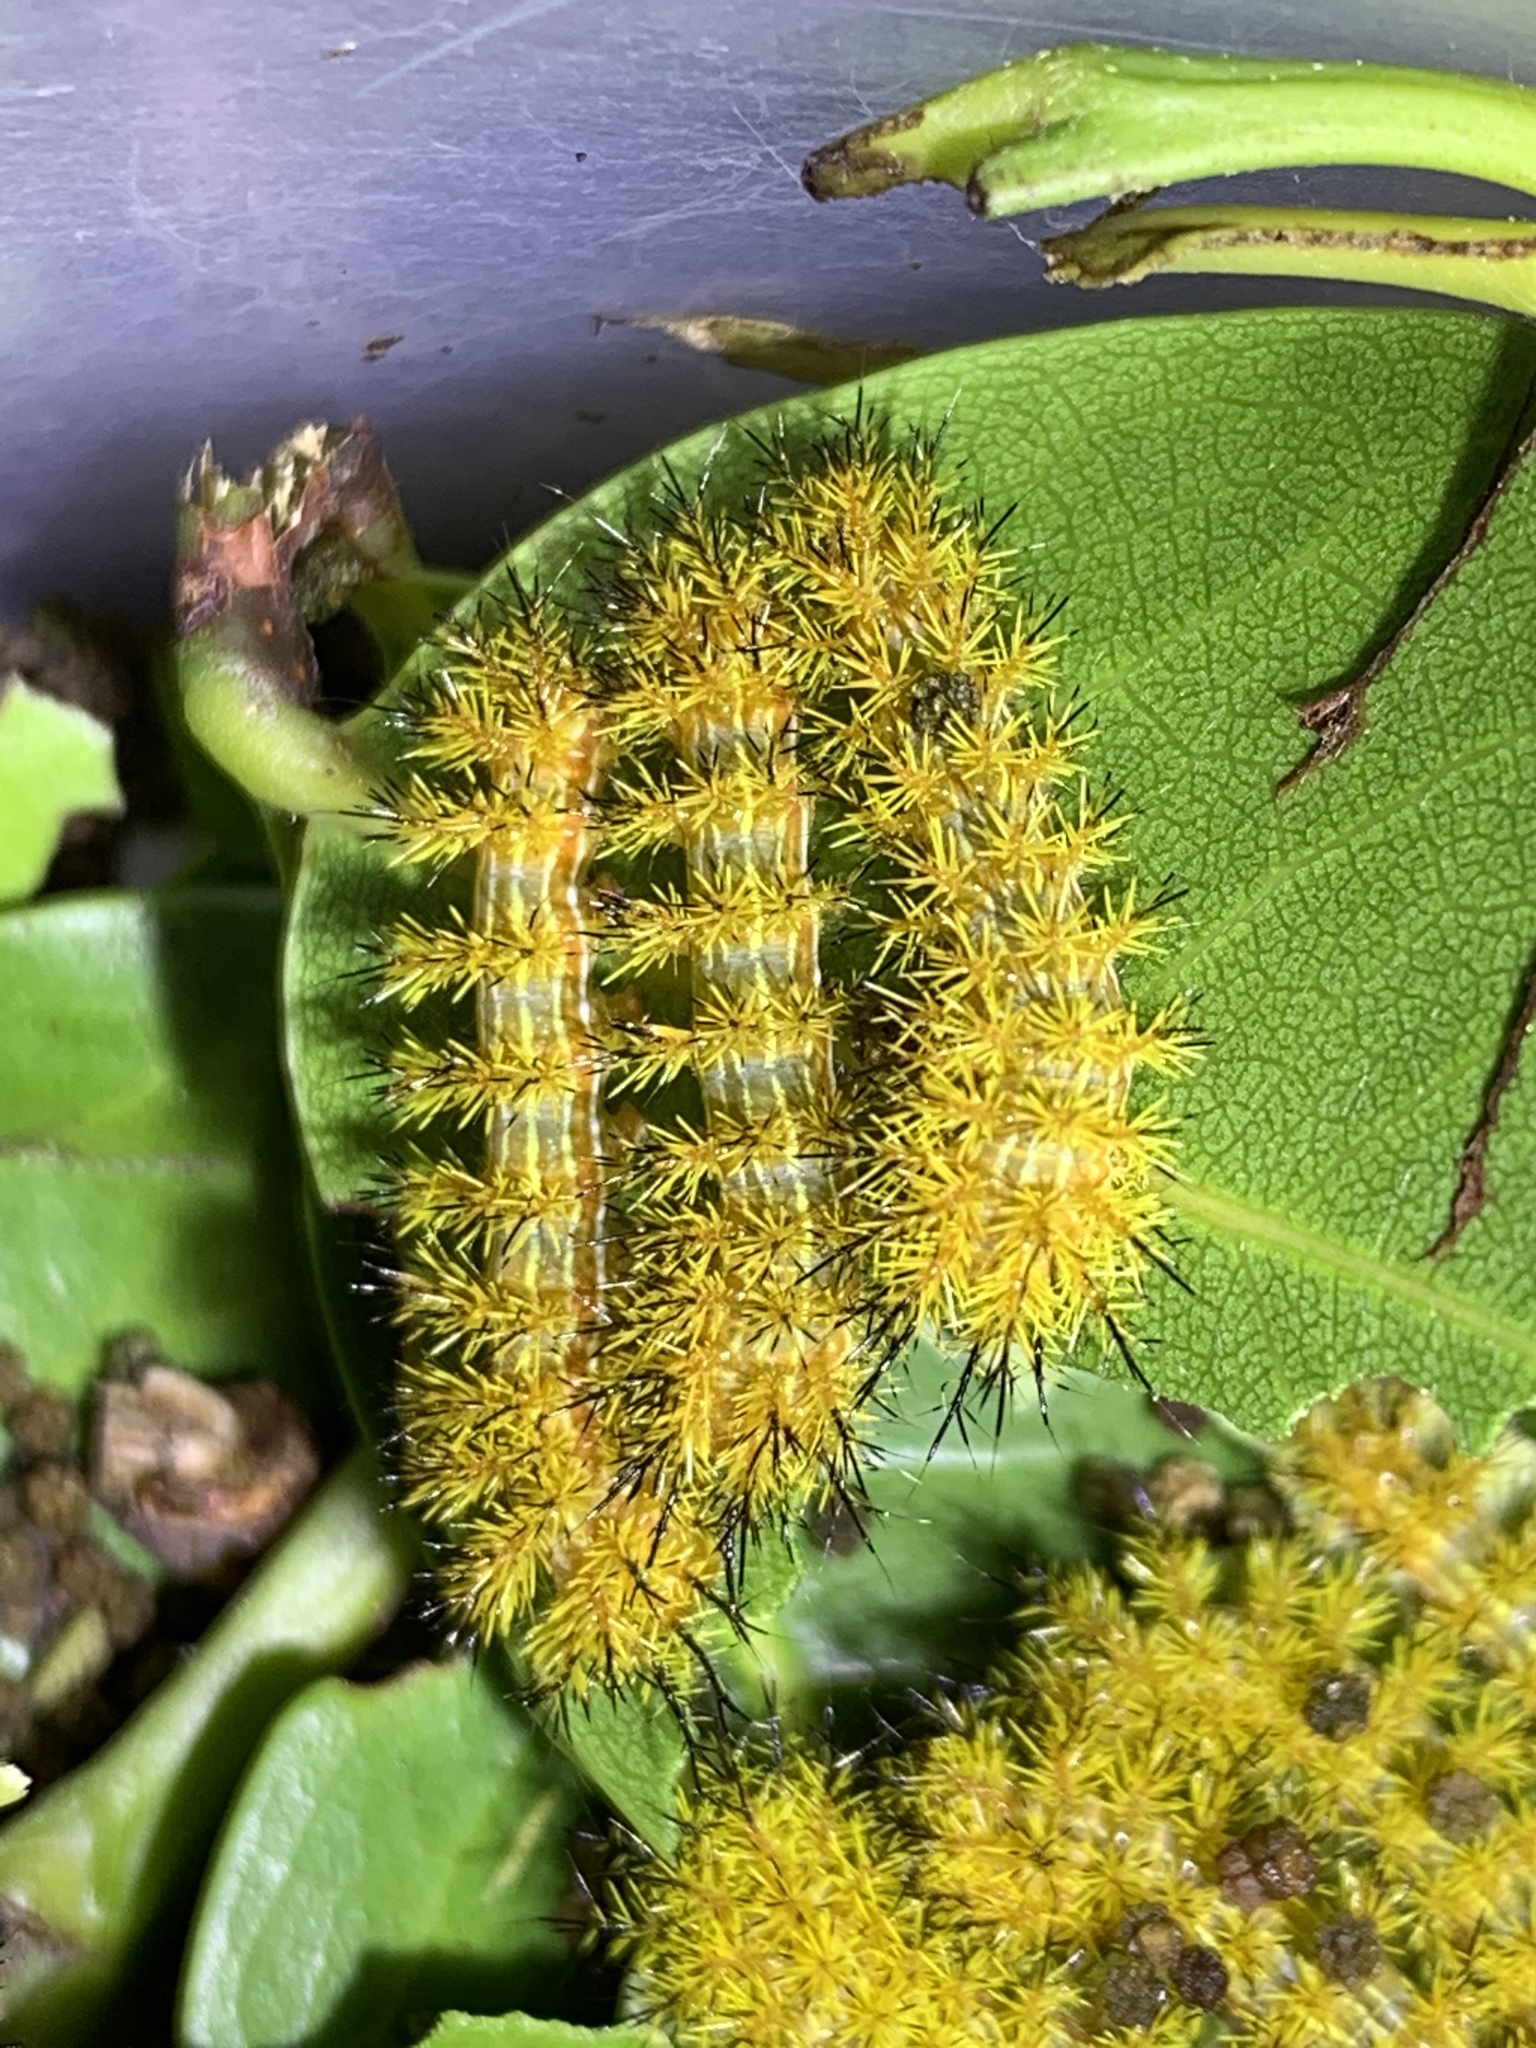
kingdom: Animalia
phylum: Arthropoda
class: Insecta
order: Lepidoptera
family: Saturniidae
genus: Automeris
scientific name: Automeris io
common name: Io moth
